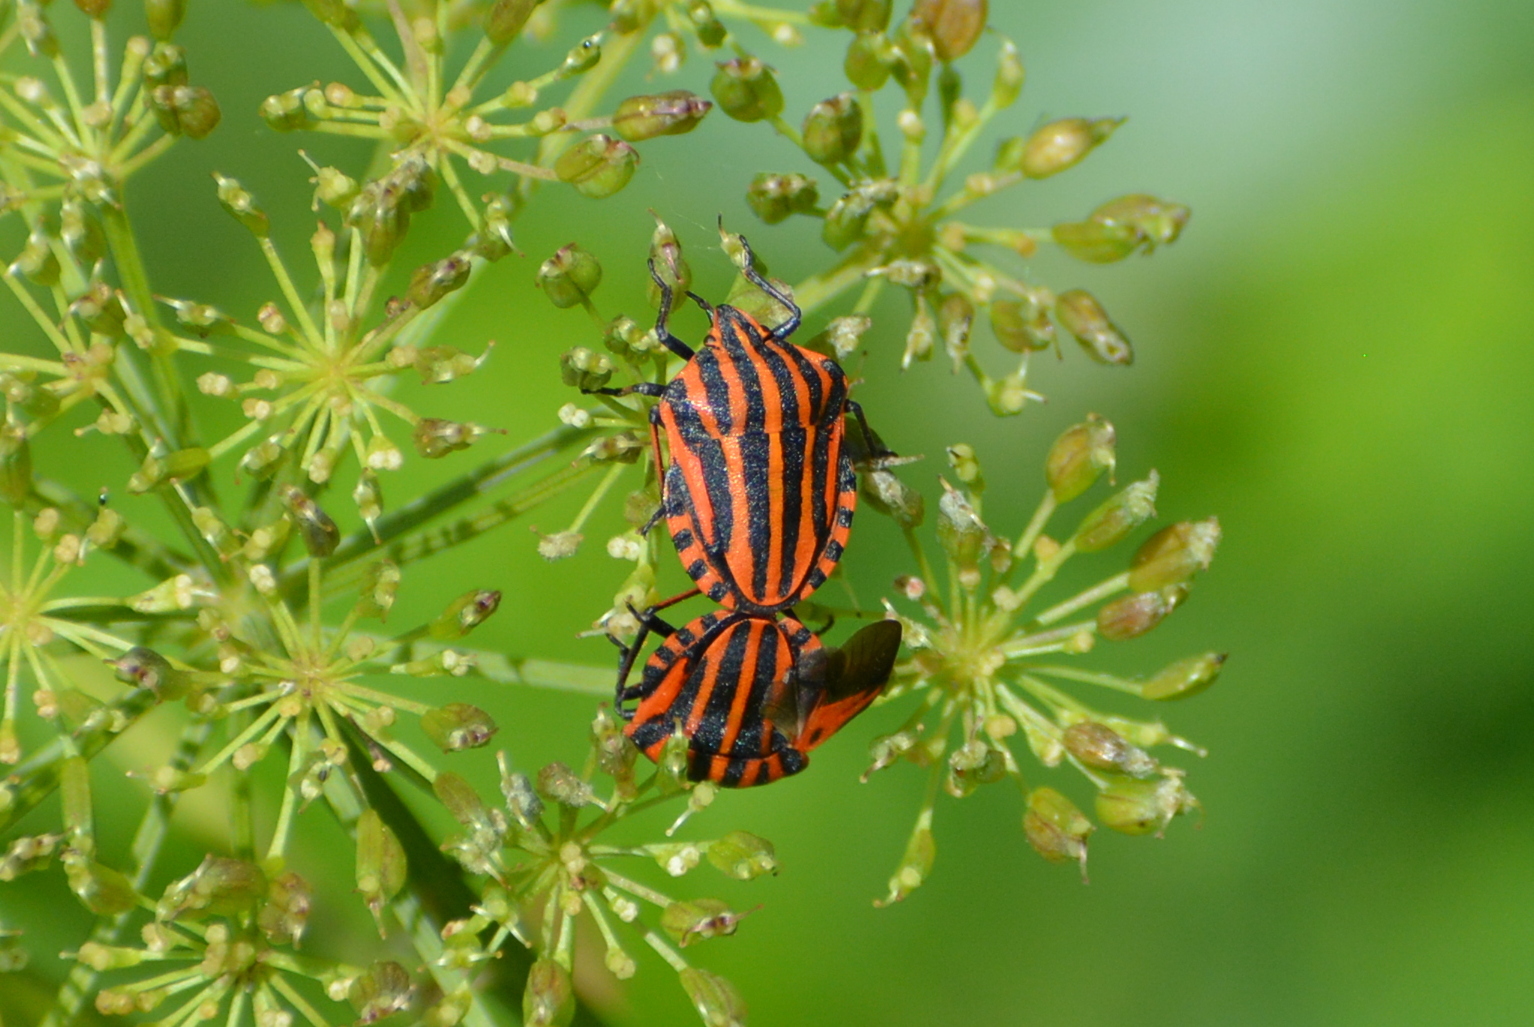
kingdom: Animalia
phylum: Arthropoda
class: Insecta
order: Hemiptera
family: Pentatomidae
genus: Graphosoma
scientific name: Graphosoma italicum
